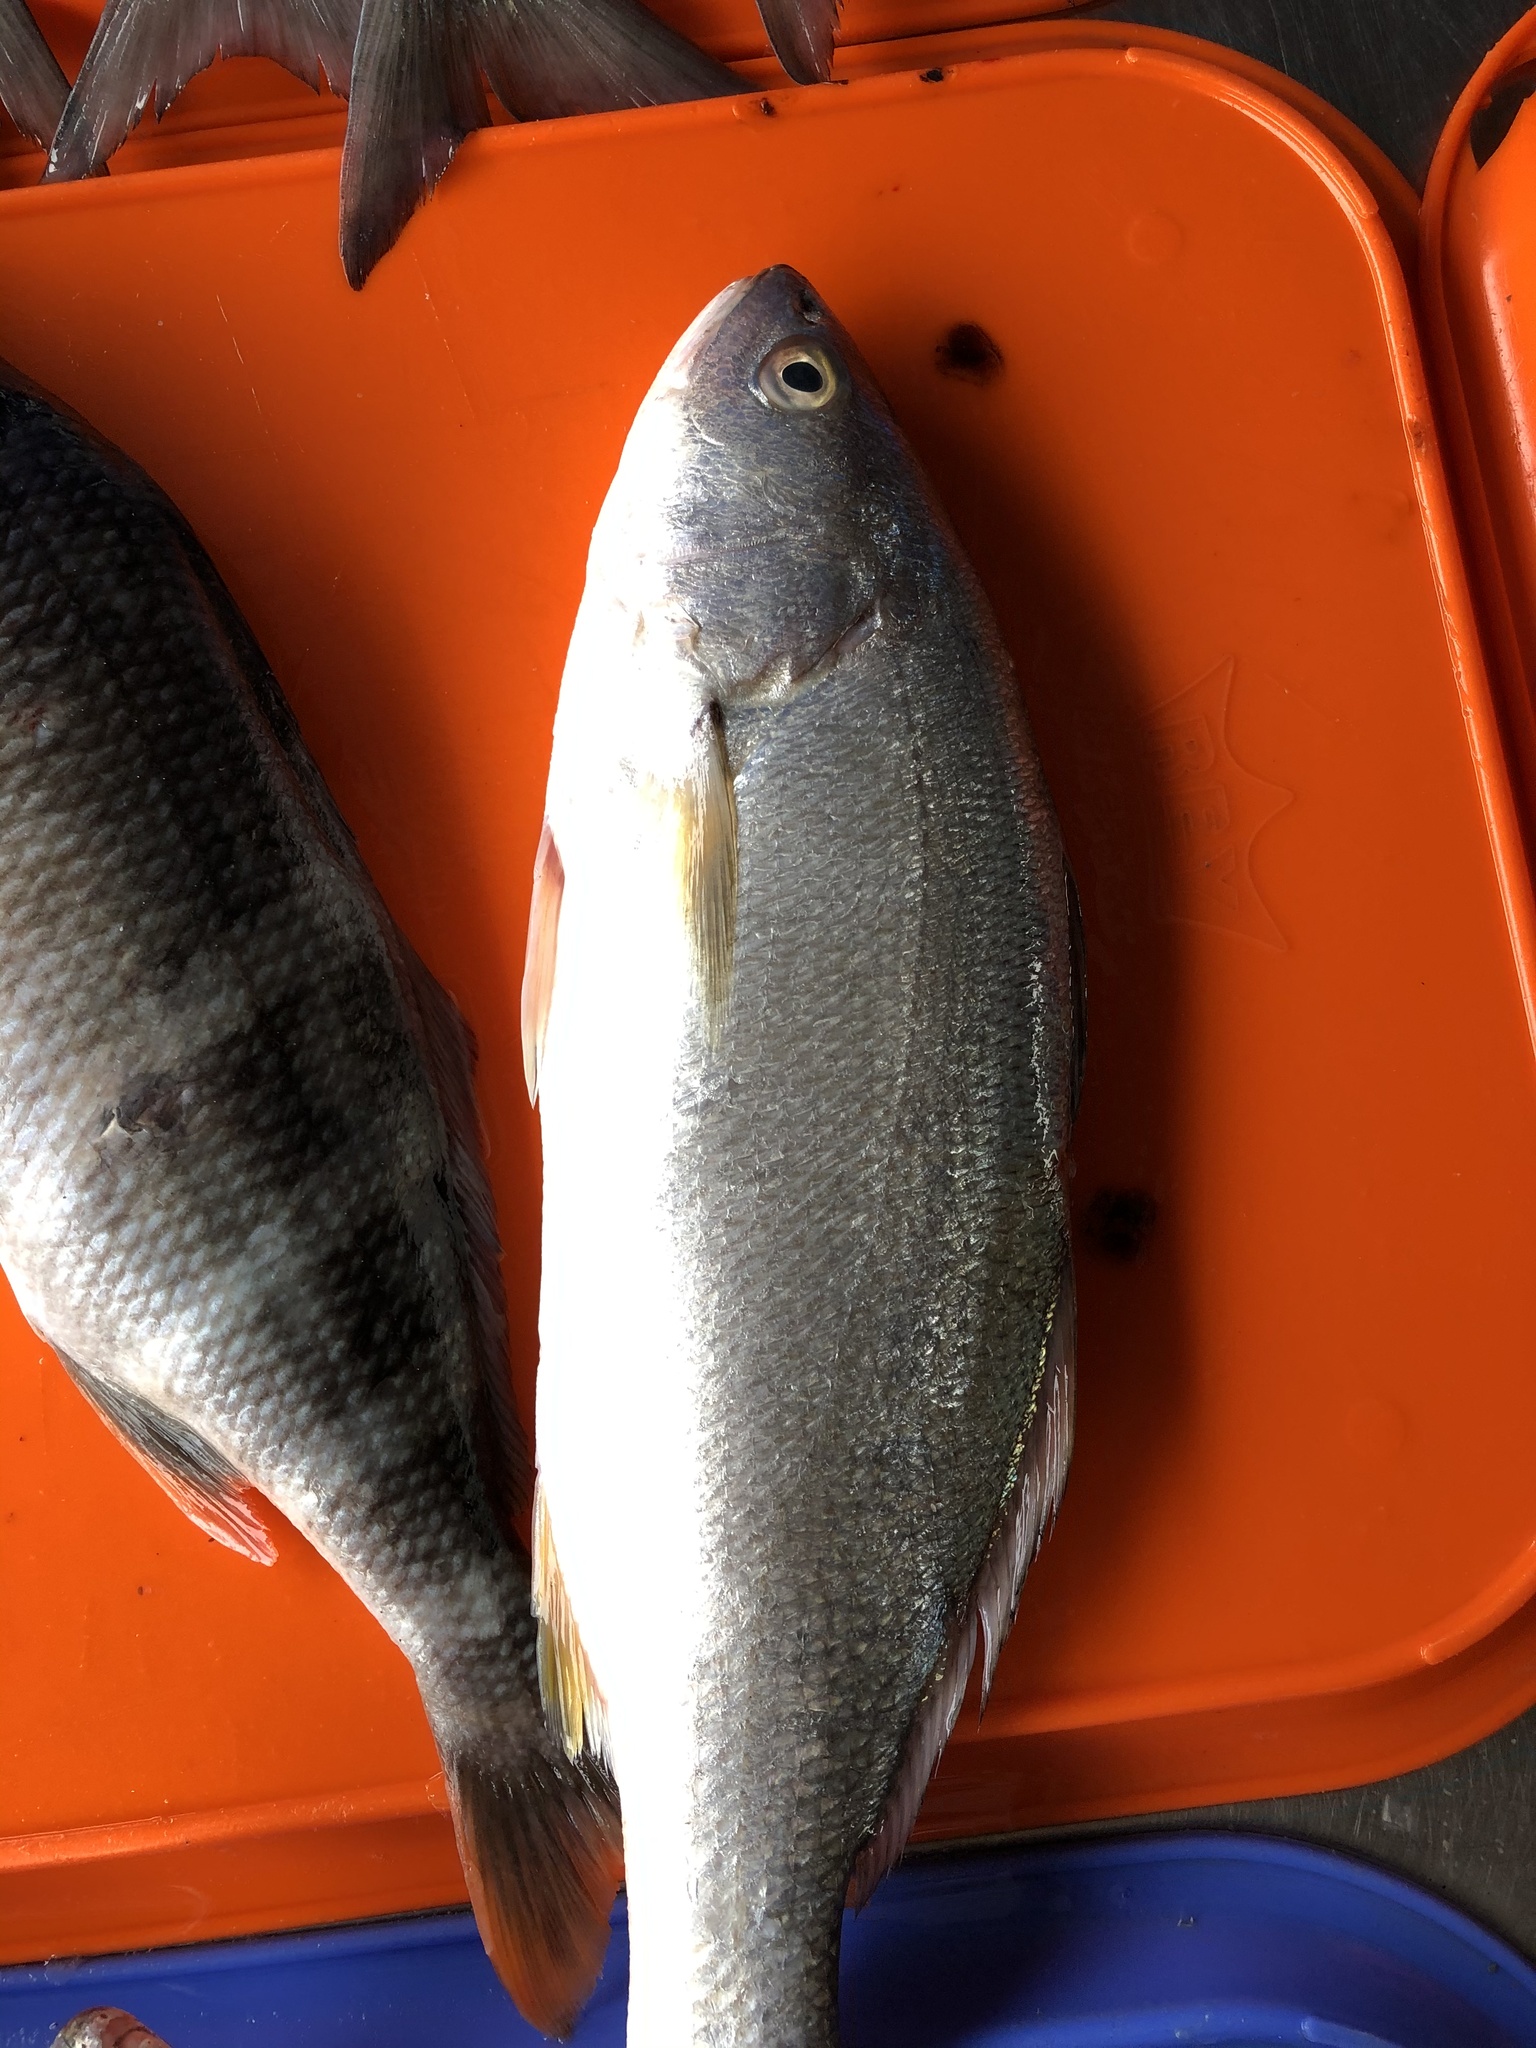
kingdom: Animalia
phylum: Chordata
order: Perciformes
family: Sciaenidae
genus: Cilus
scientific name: Cilus gilberti
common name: Corvina drum
